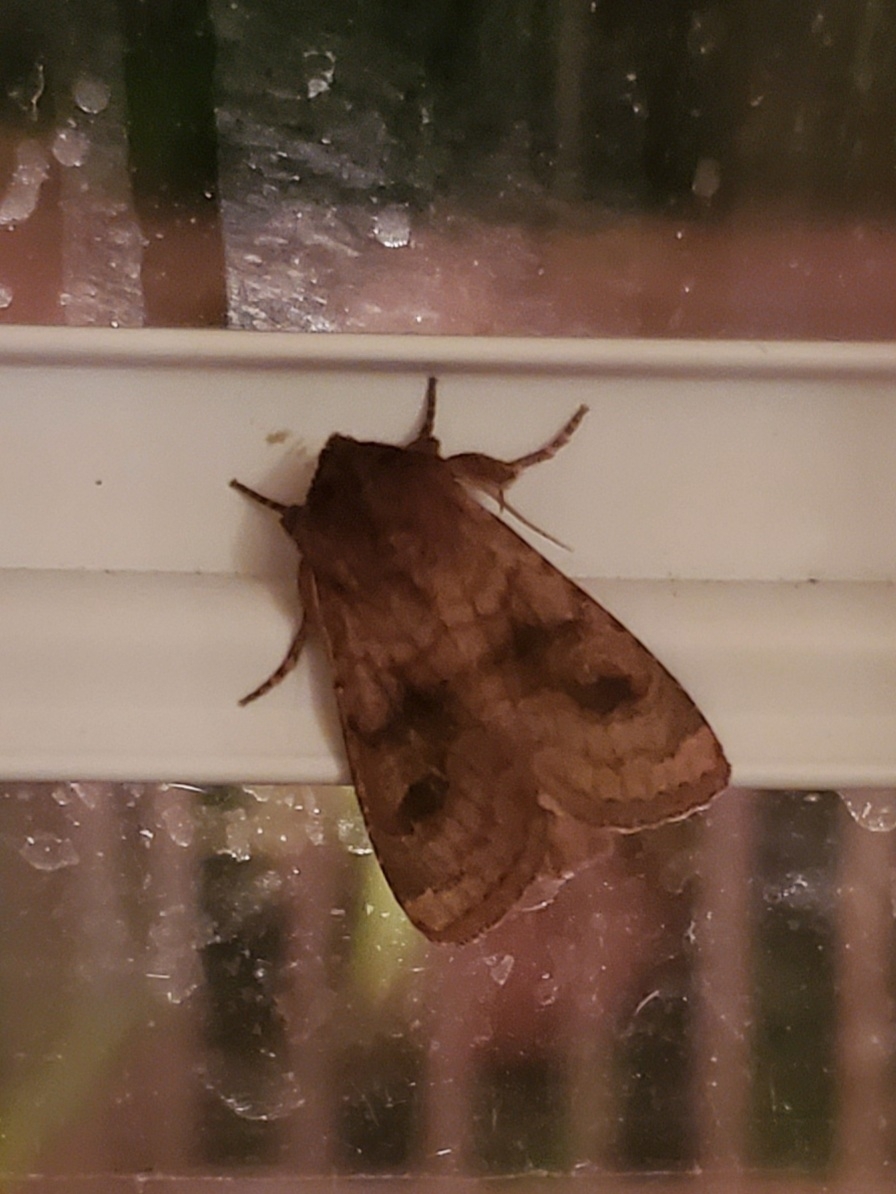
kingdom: Animalia
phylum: Arthropoda
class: Insecta
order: Lepidoptera
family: Noctuidae
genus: Nephelodes
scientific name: Nephelodes minians
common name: Bronzed cutworm
